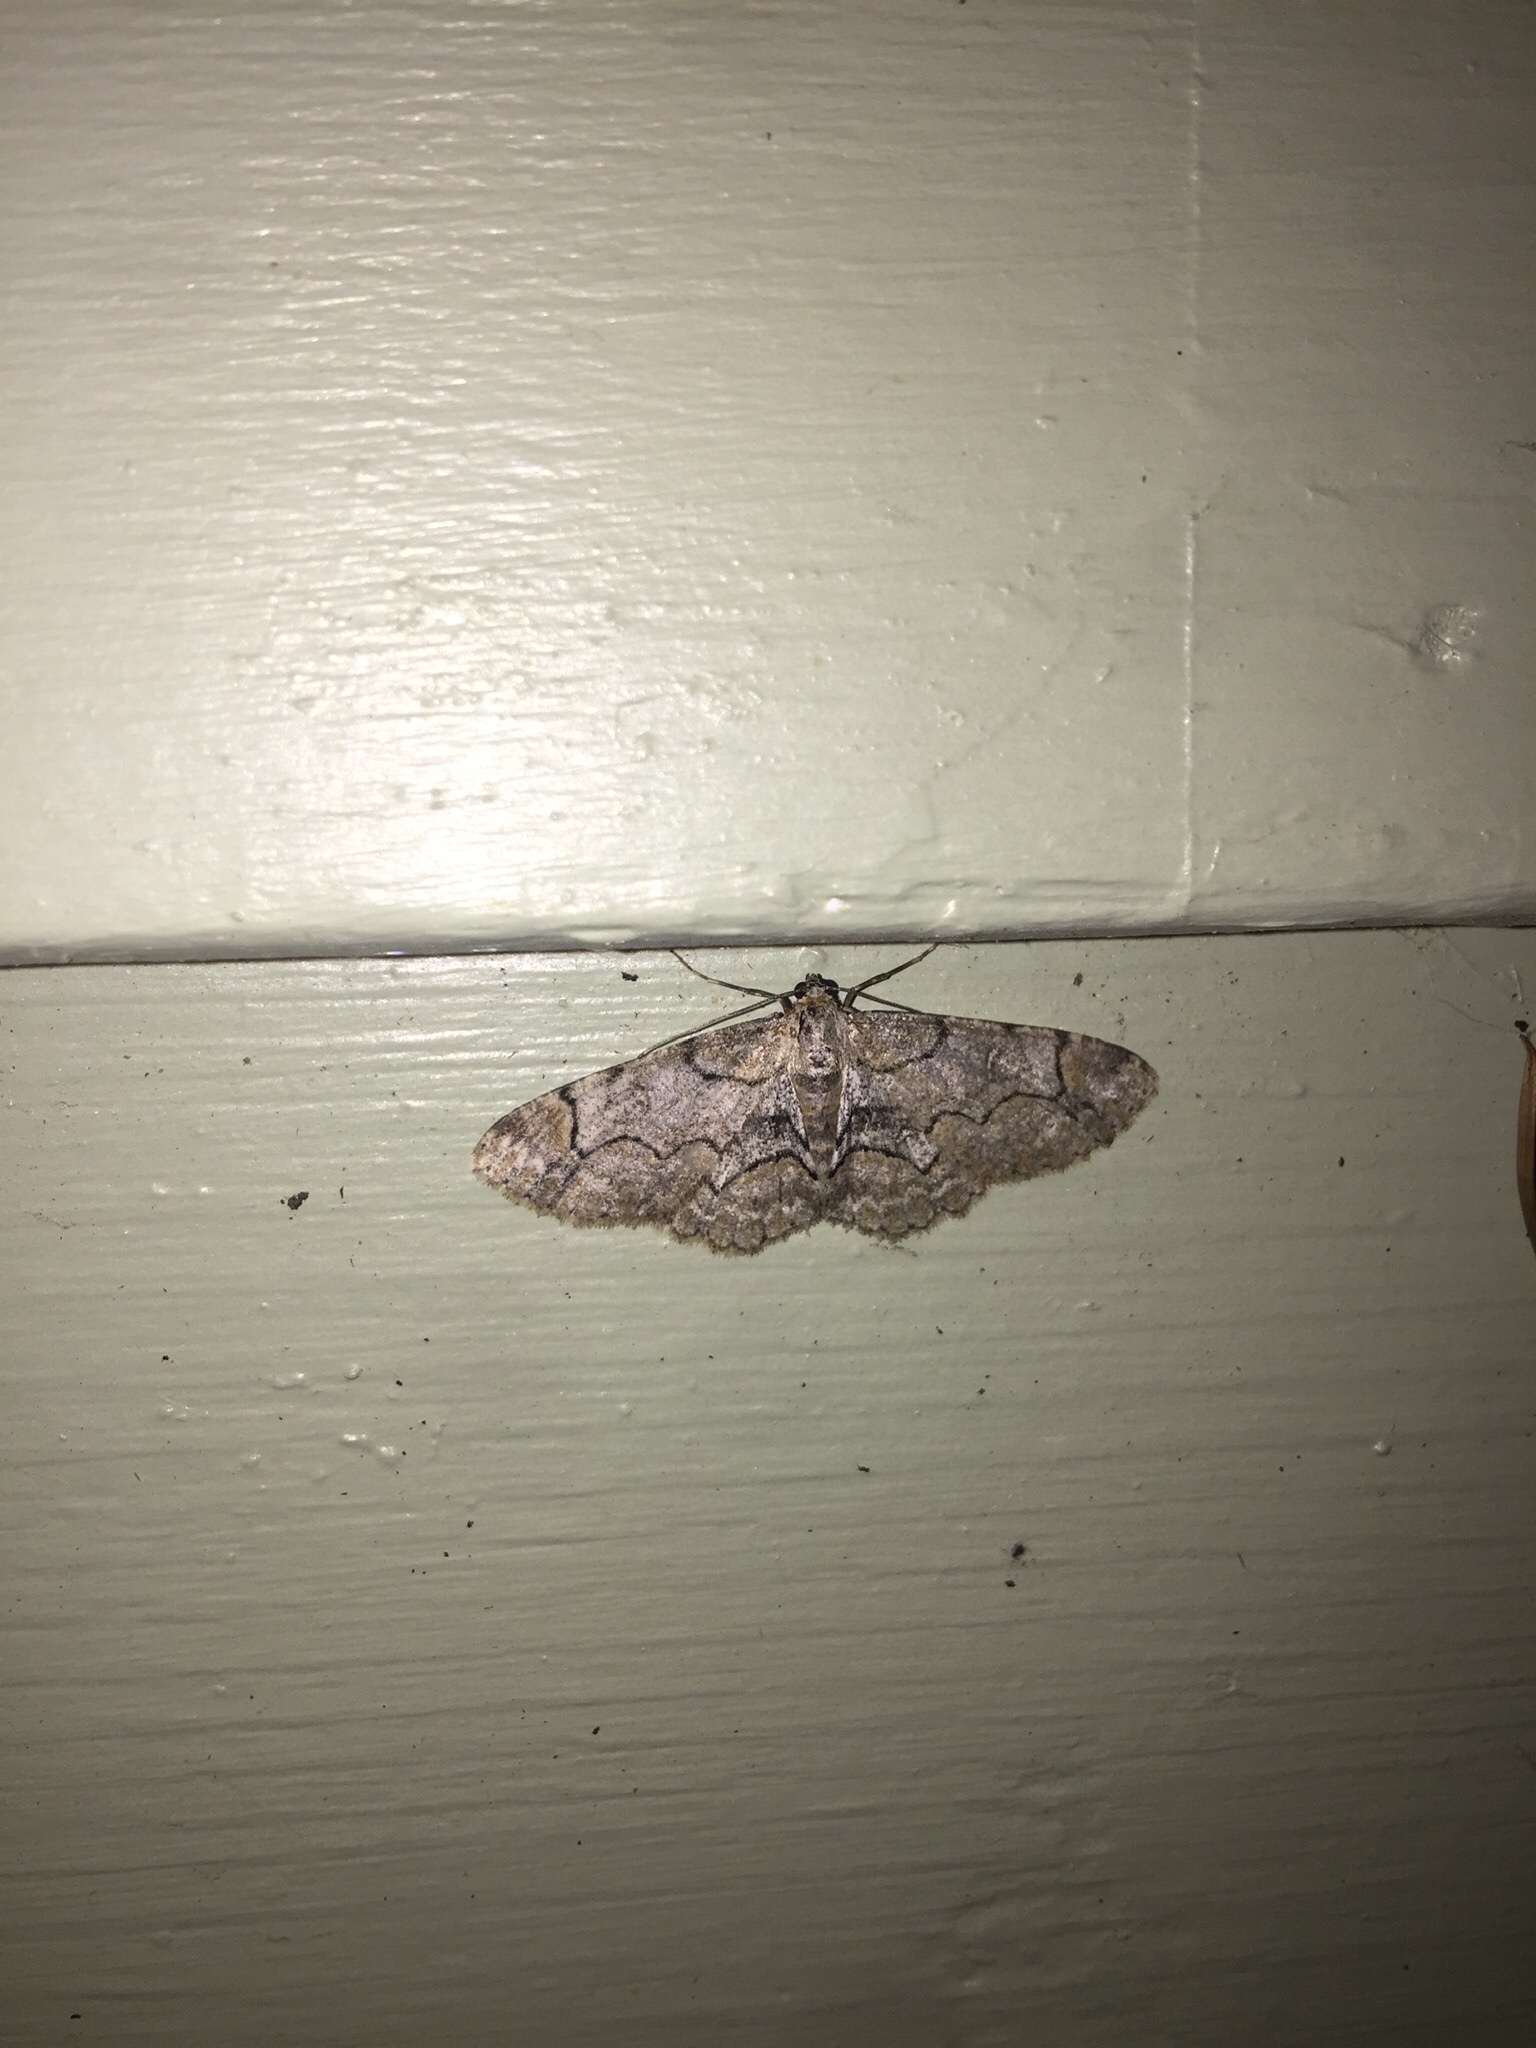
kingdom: Animalia
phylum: Arthropoda
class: Insecta
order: Lepidoptera
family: Geometridae
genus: Iridopsis
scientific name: Iridopsis larvaria
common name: Bent-line gray
